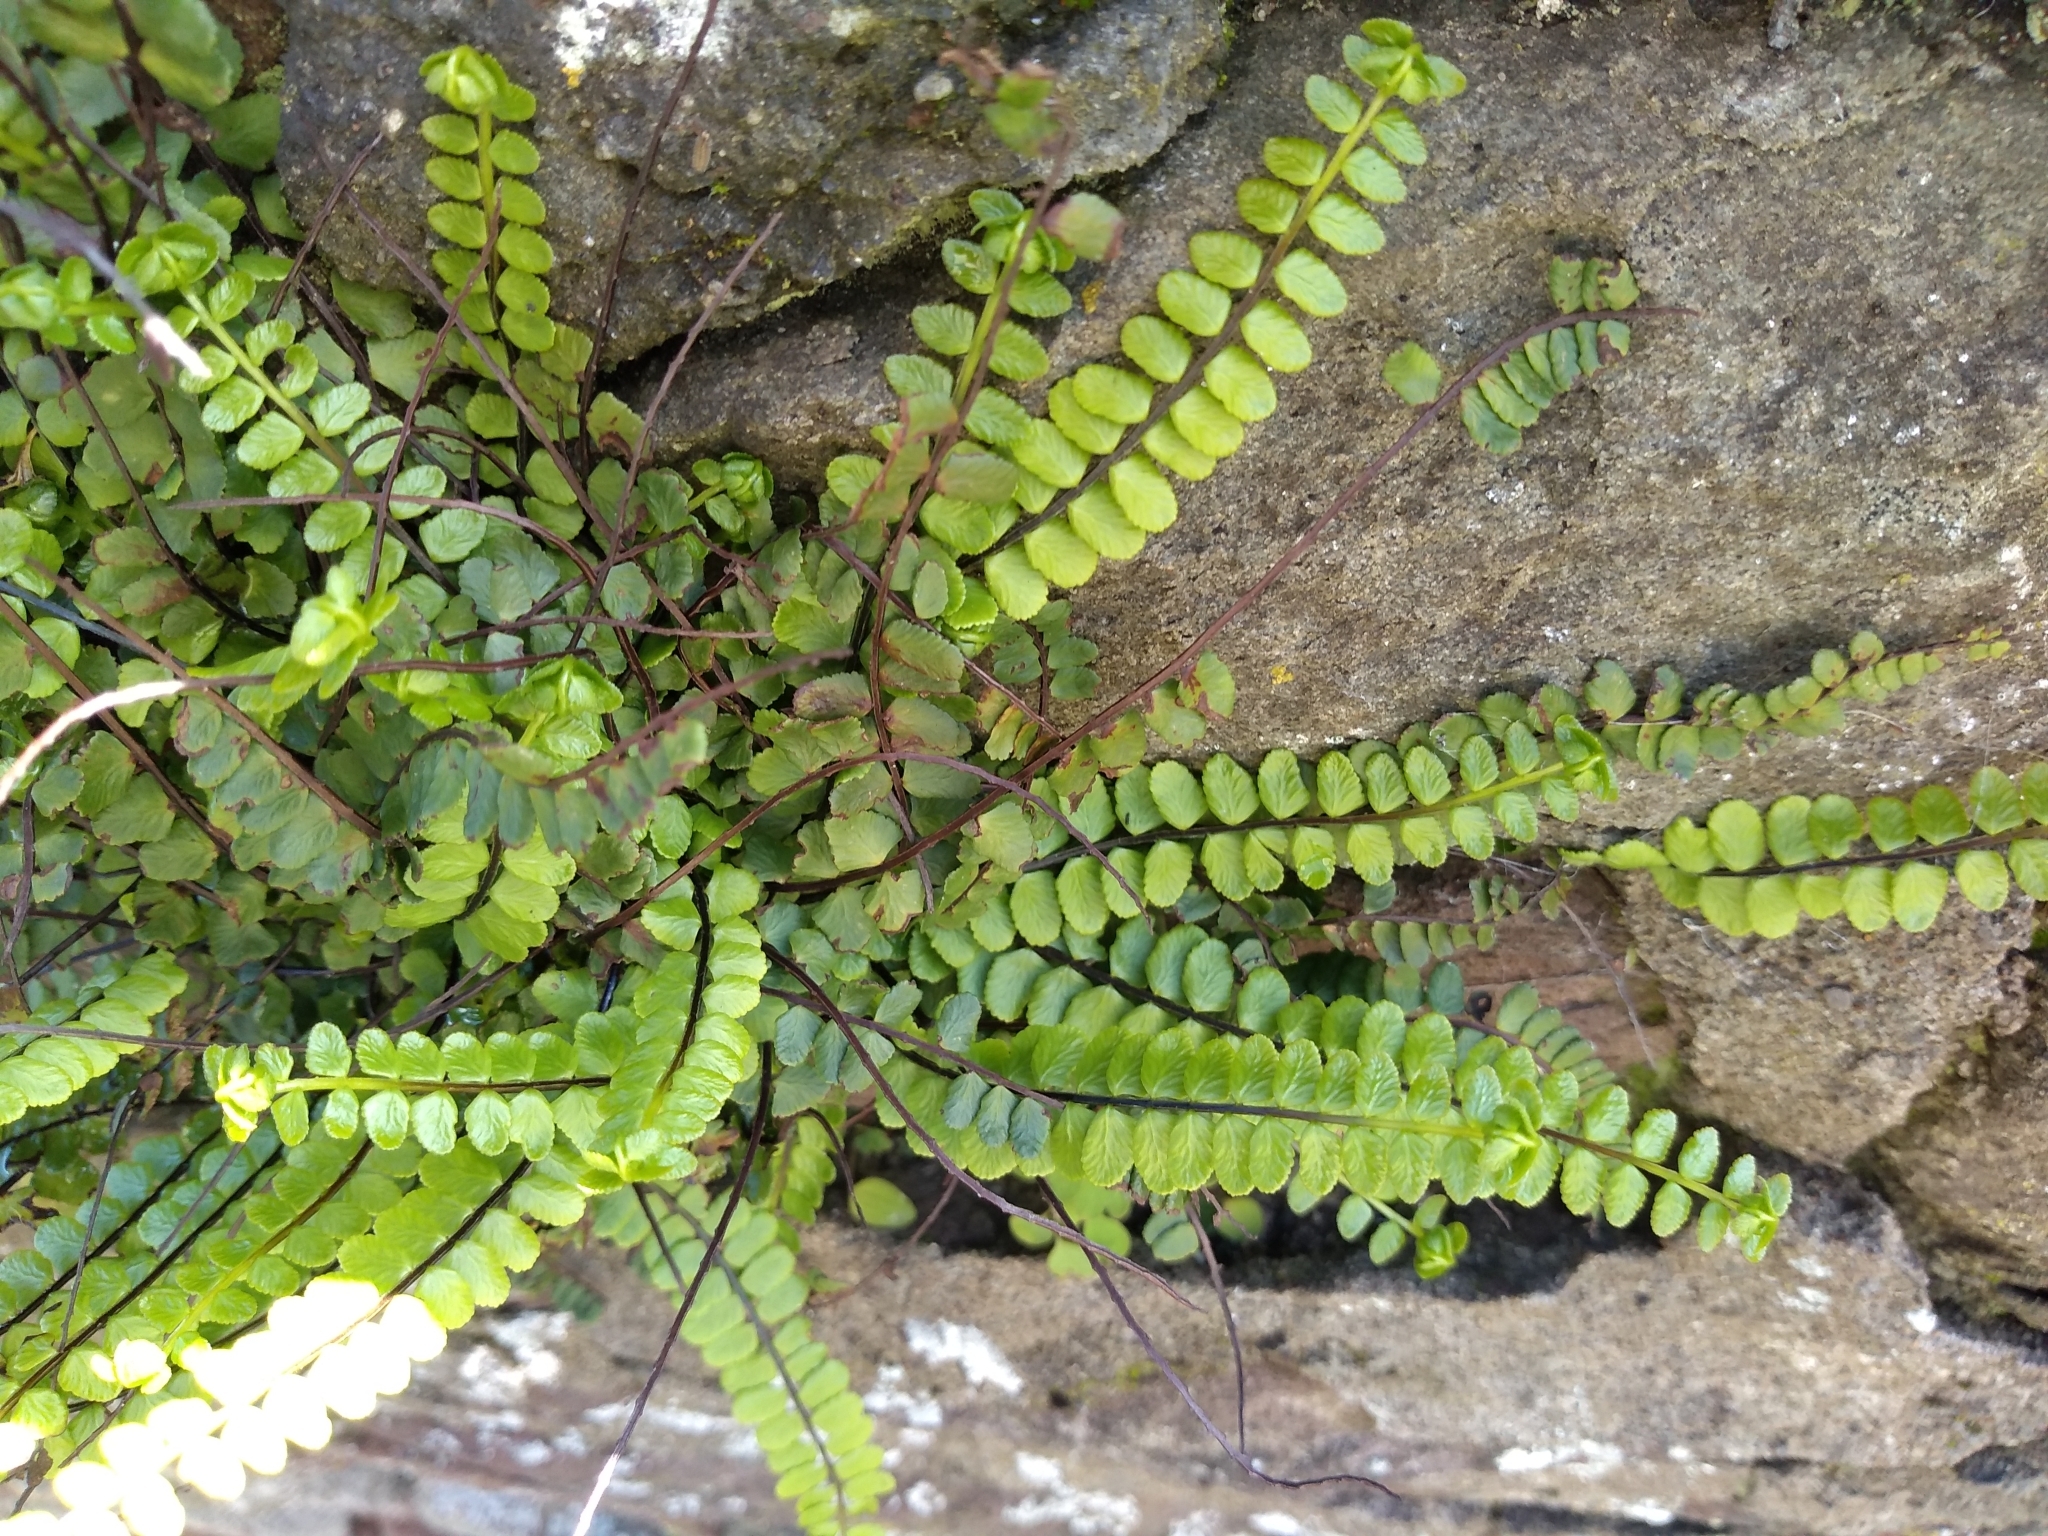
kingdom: Plantae
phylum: Tracheophyta
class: Polypodiopsida
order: Polypodiales
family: Aspleniaceae
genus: Asplenium
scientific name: Asplenium trichomanes
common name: Maidenhair spleenwort
